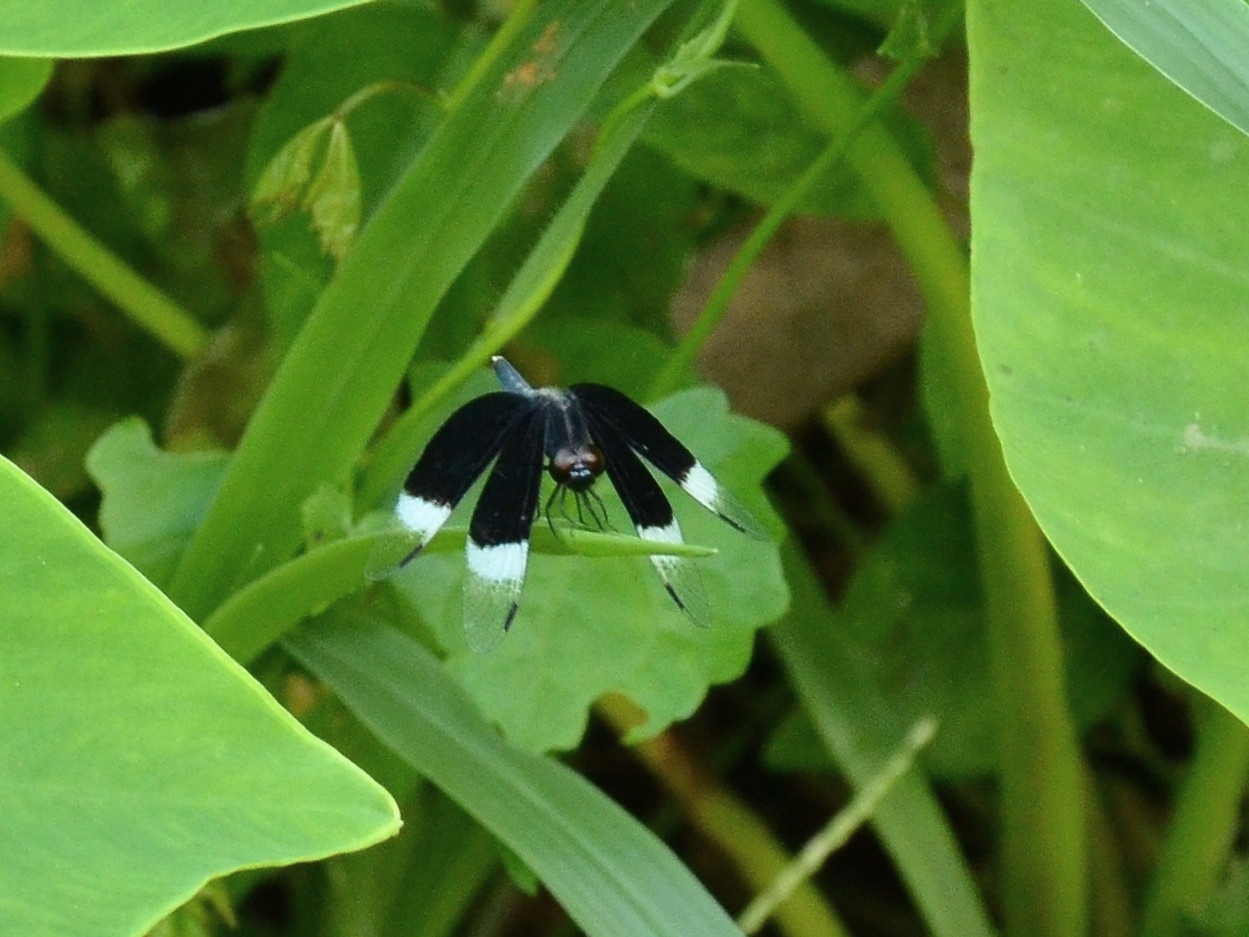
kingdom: Animalia
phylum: Arthropoda
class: Insecta
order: Odonata
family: Libellulidae
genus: Neurothemis
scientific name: Neurothemis tullia
